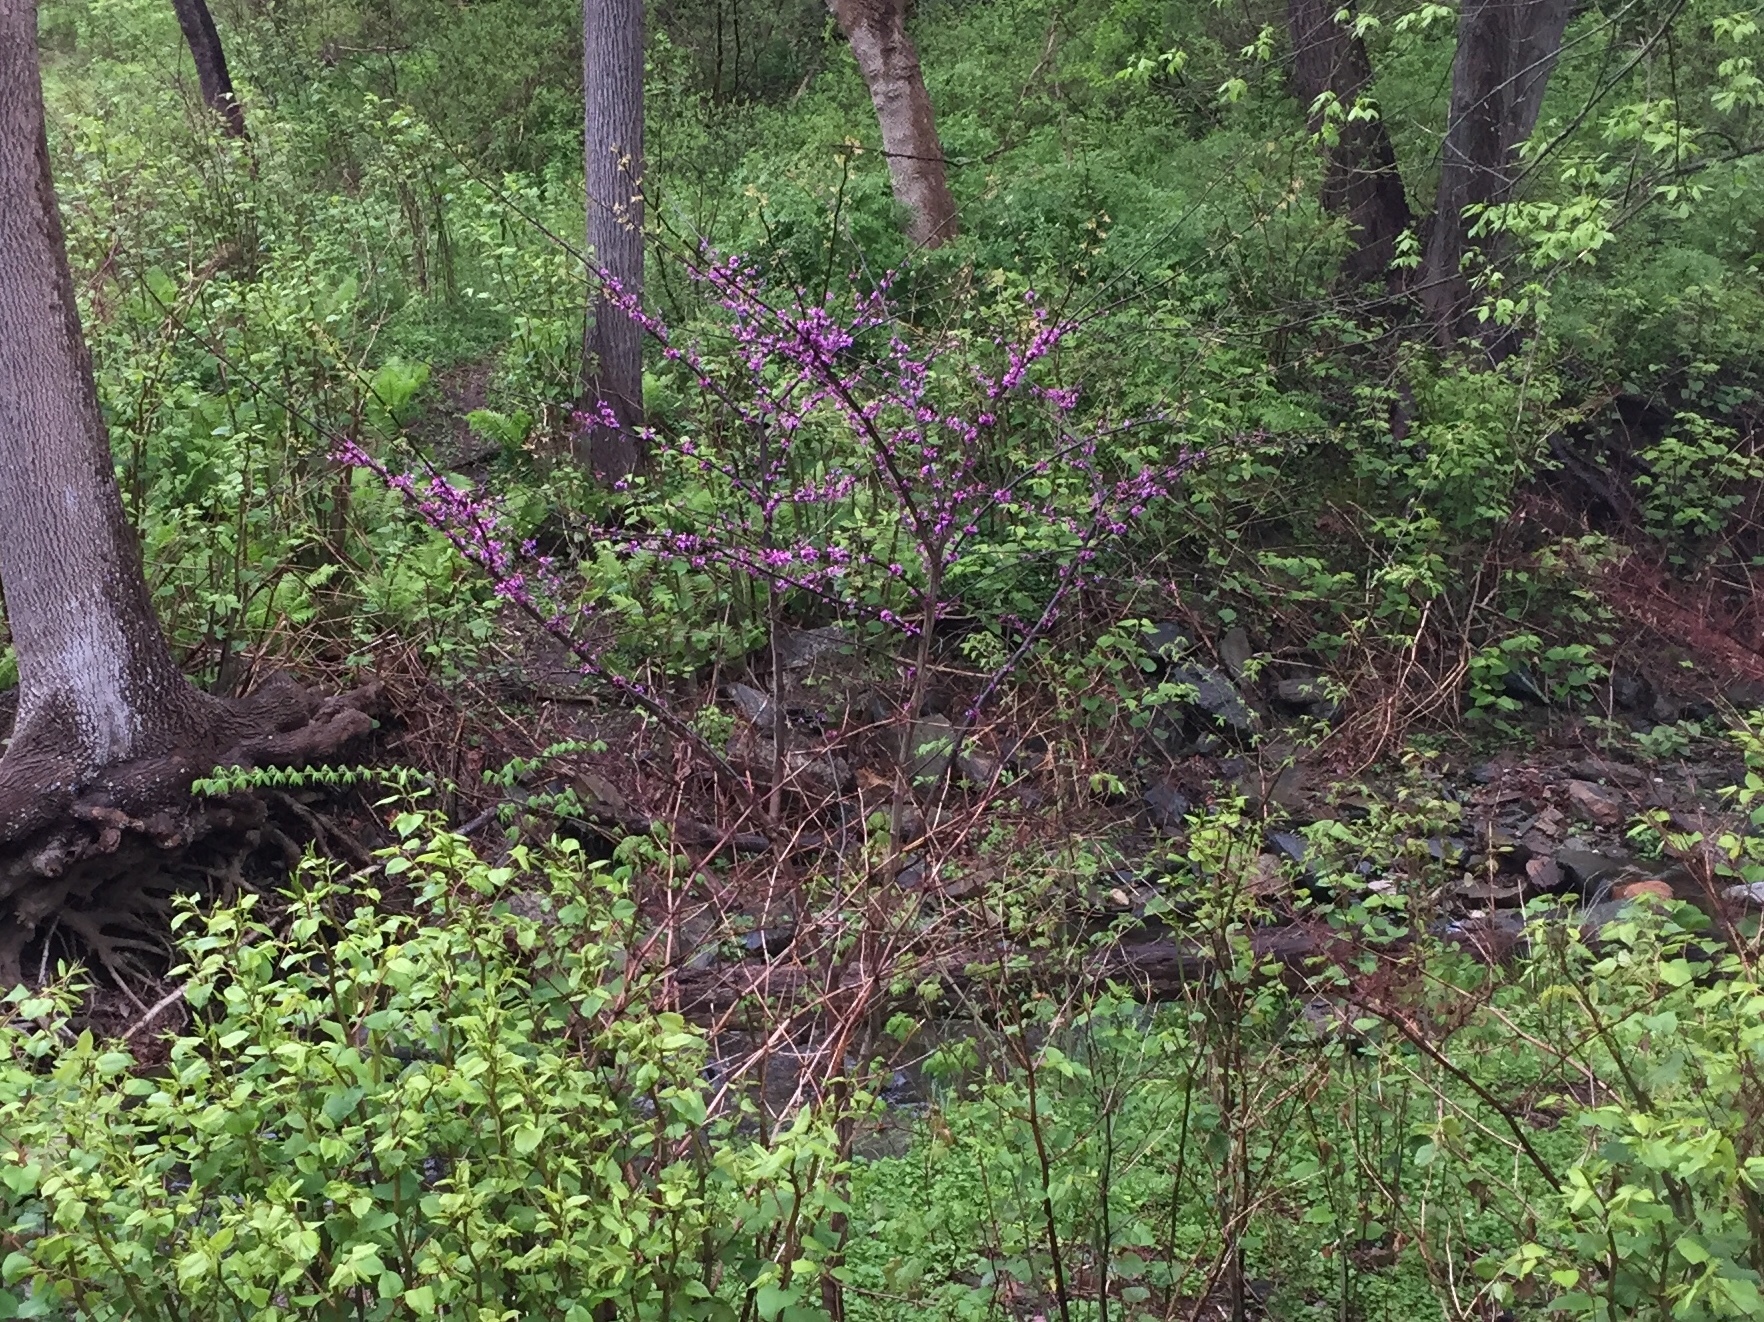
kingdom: Plantae
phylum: Tracheophyta
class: Magnoliopsida
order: Fabales
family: Fabaceae
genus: Cercis
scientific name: Cercis canadensis
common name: Eastern redbud
